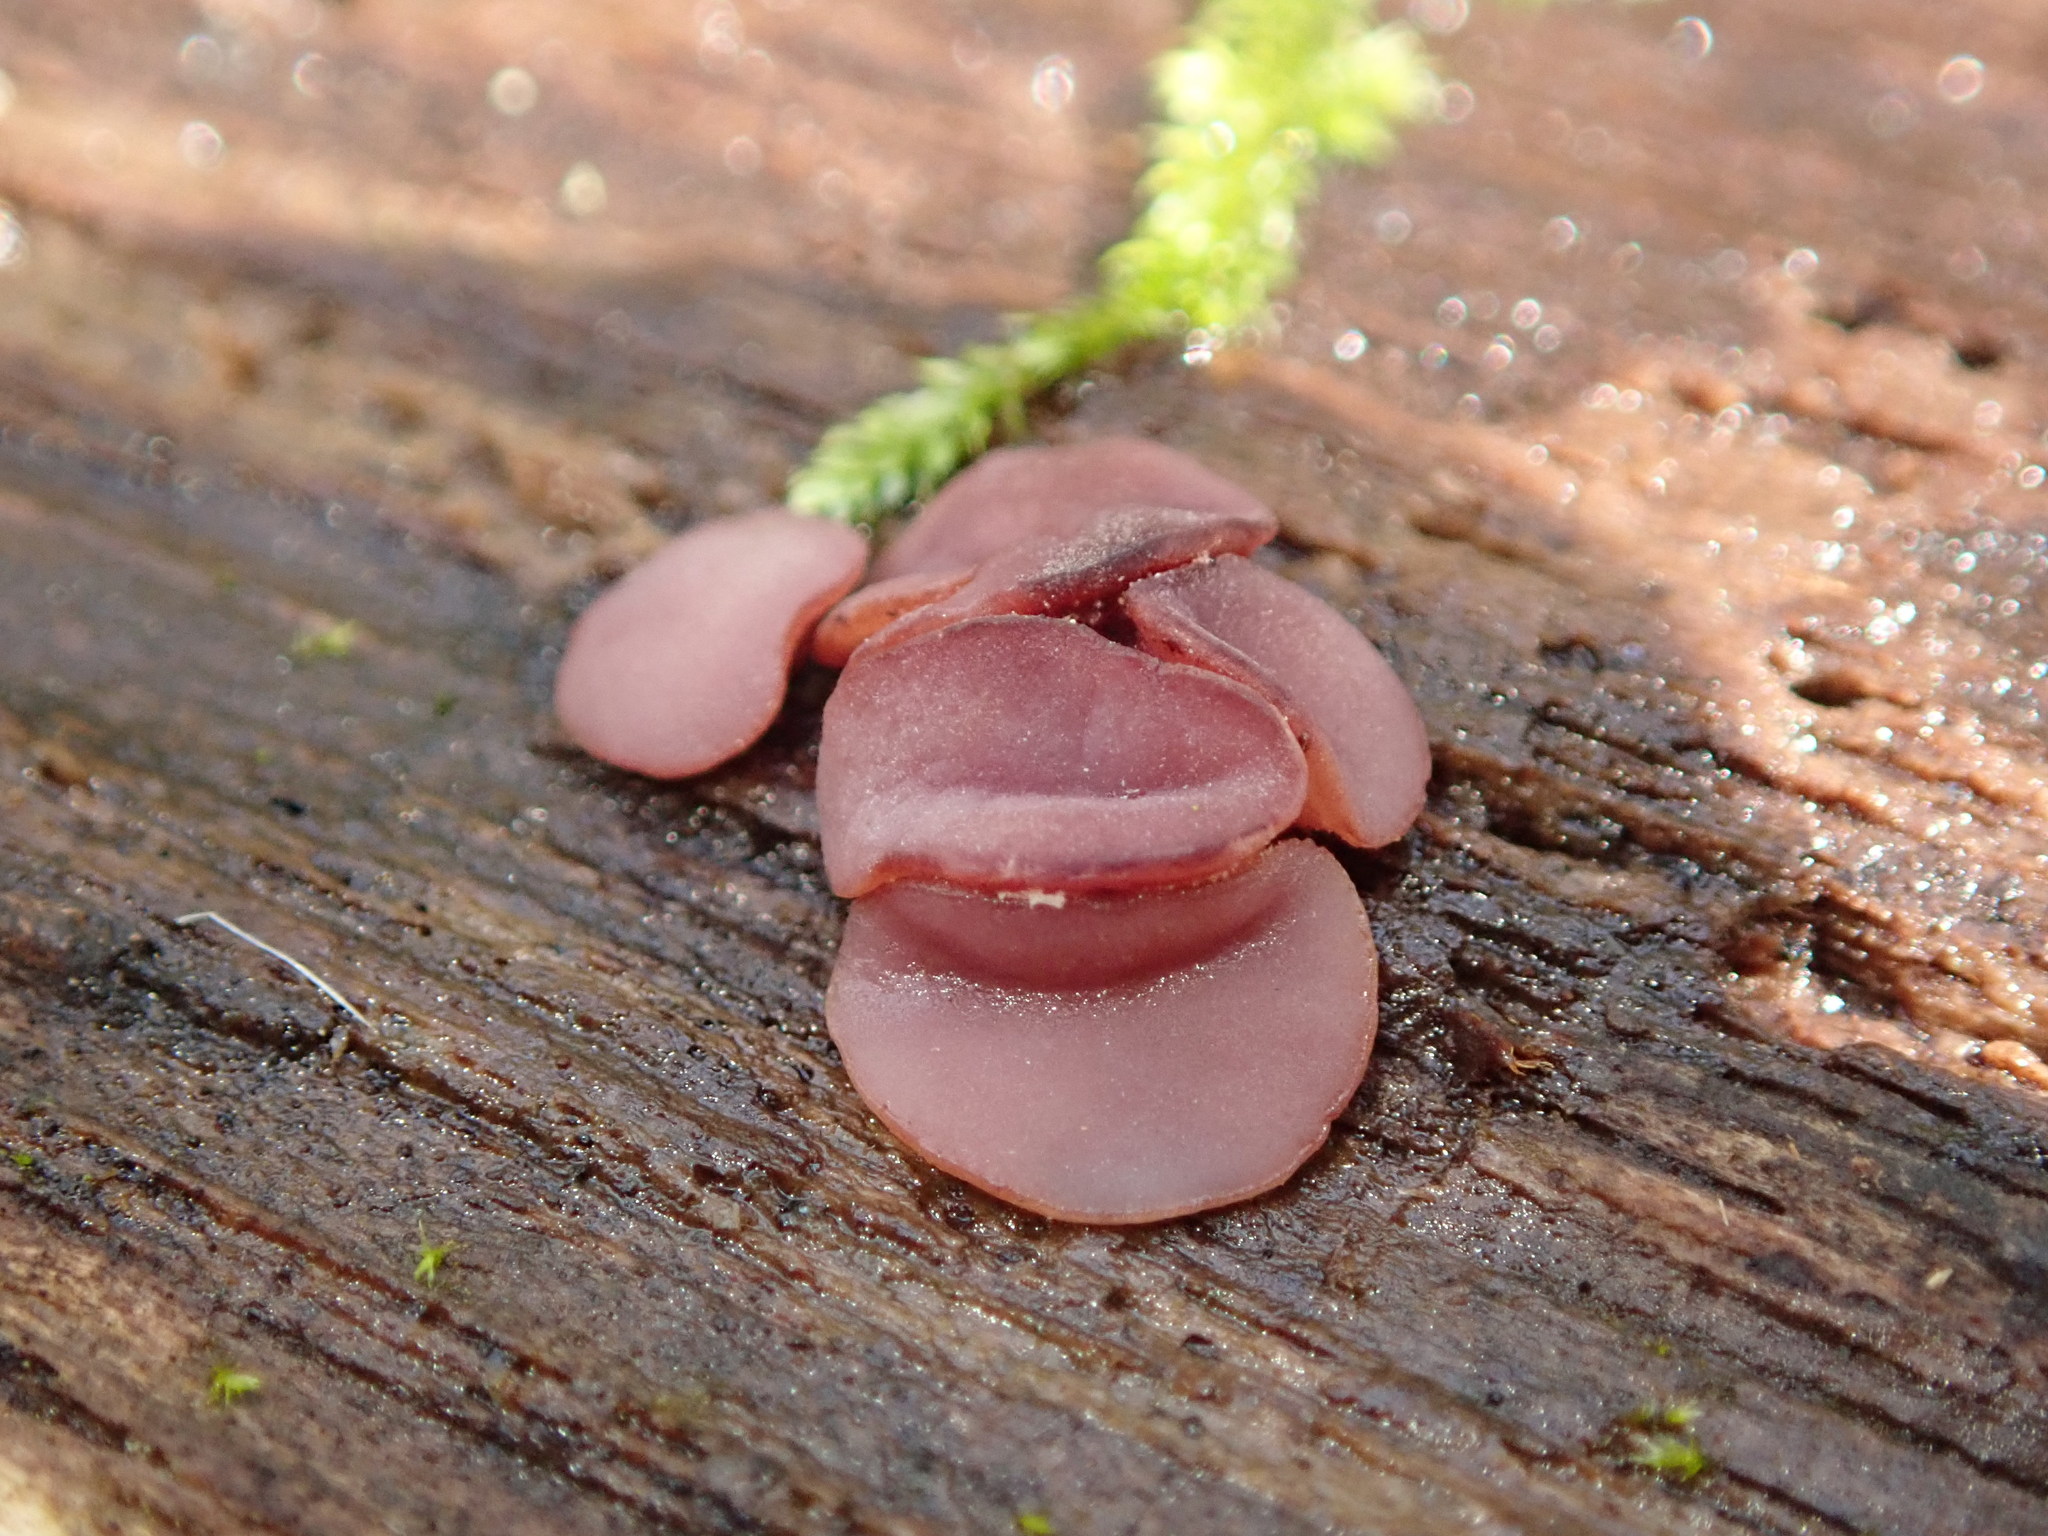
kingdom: Fungi
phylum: Ascomycota
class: Leotiomycetes
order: Helotiales
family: Gelatinodiscaceae
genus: Ascocoryne
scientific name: Ascocoryne sarcoides
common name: Purple jellydisc
